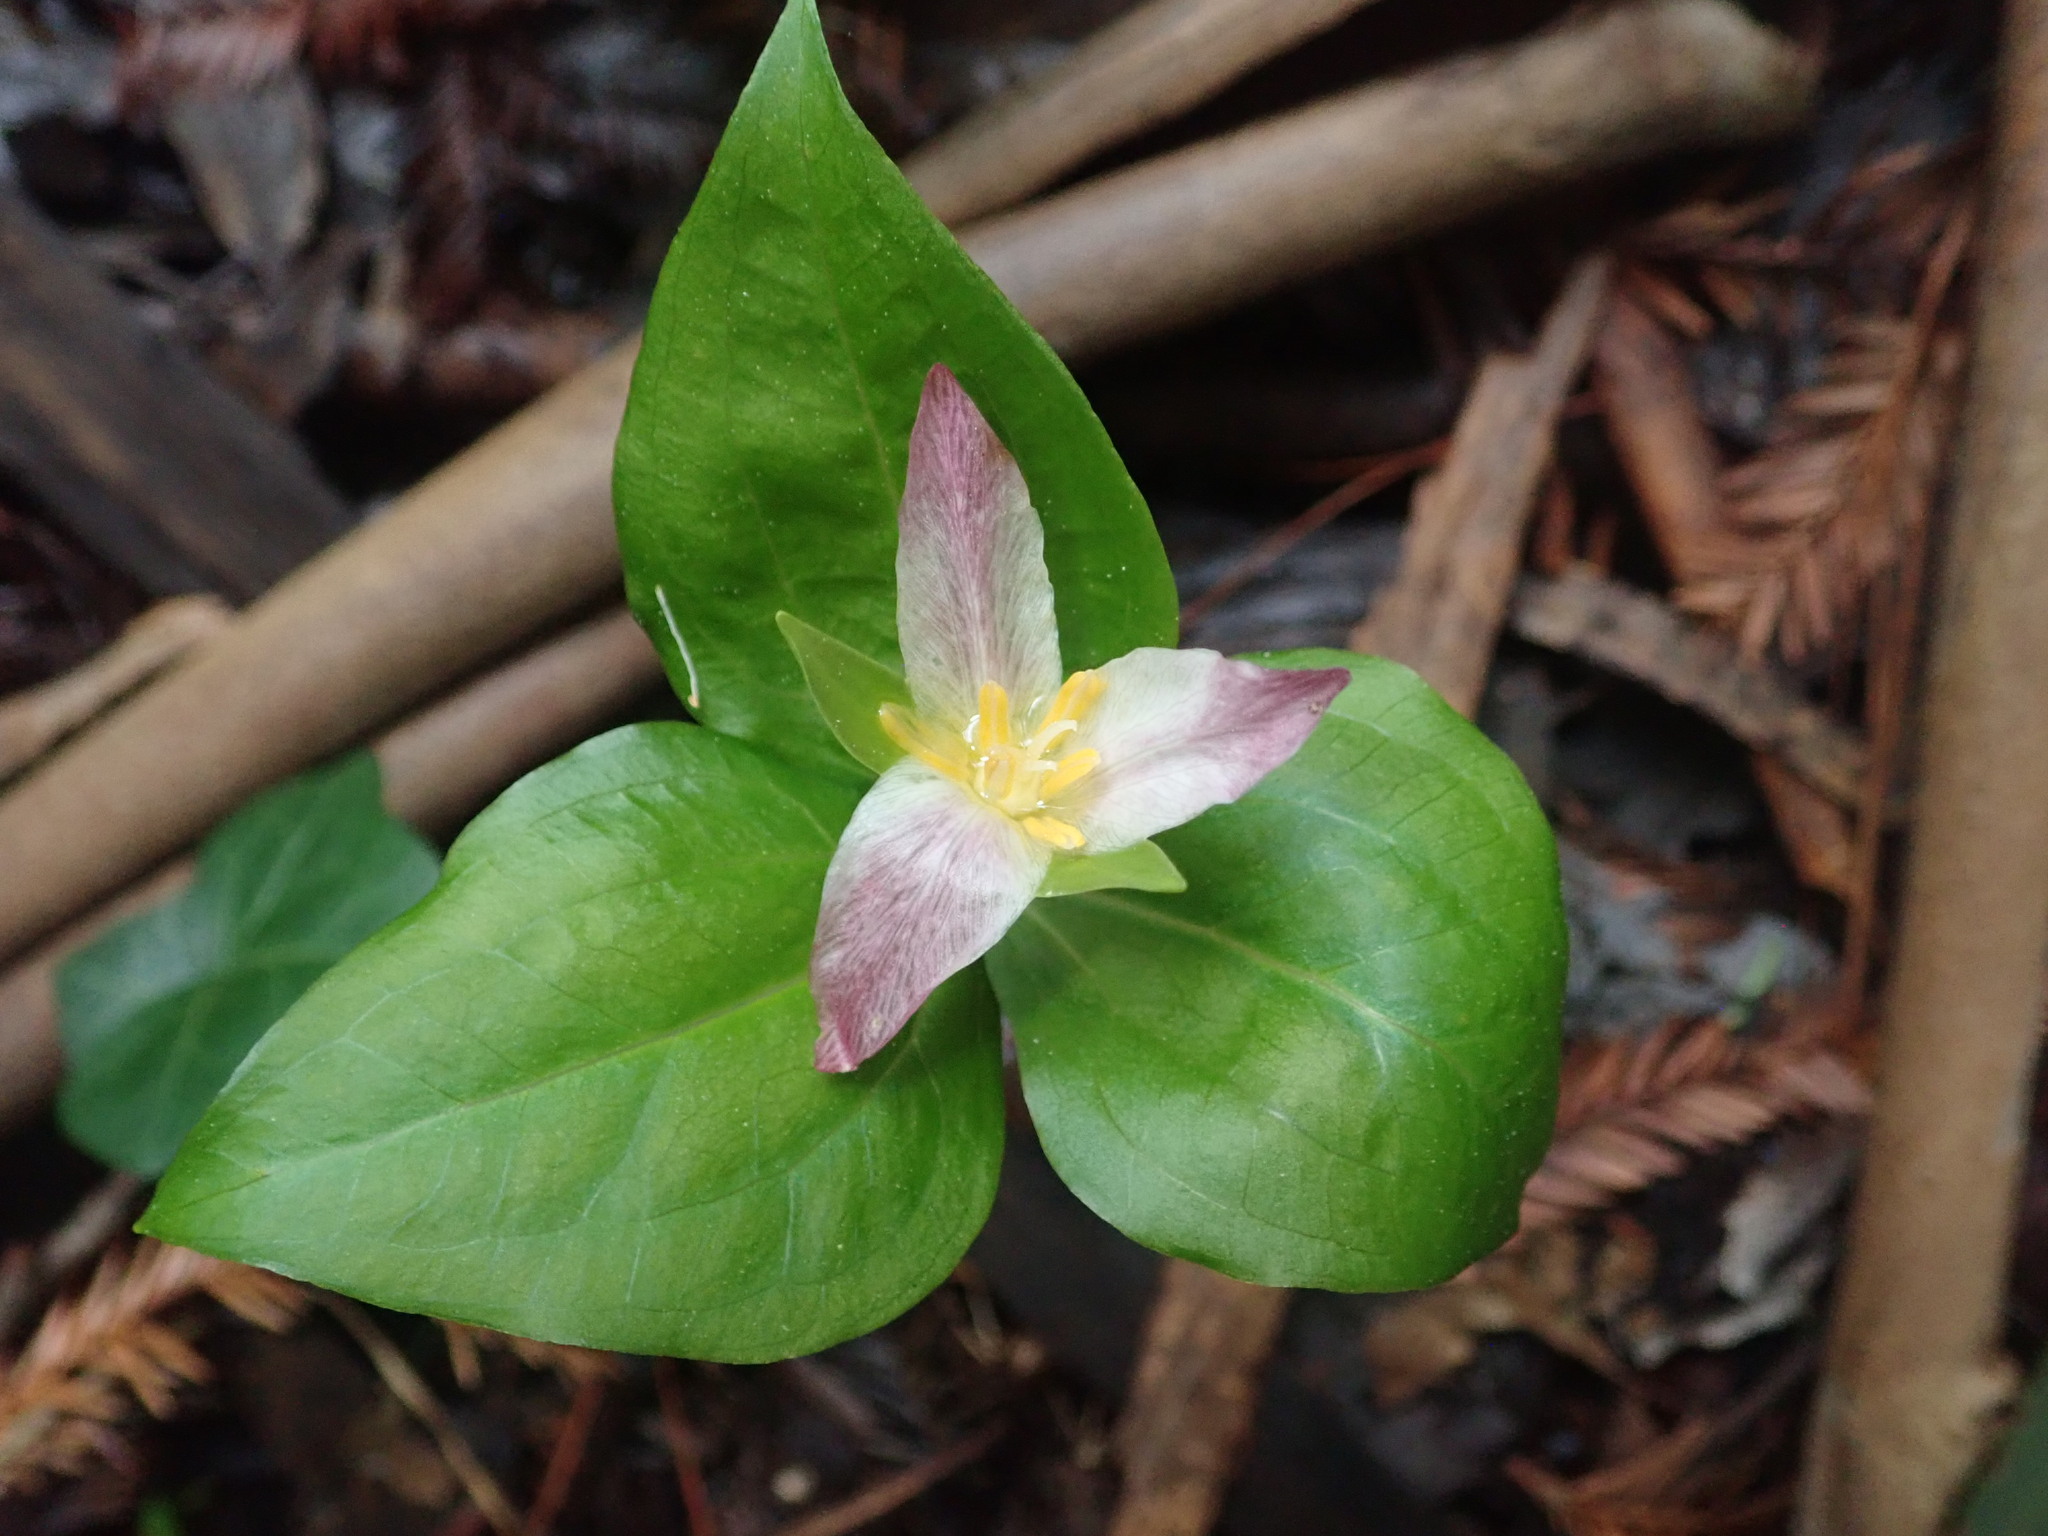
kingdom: Plantae
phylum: Tracheophyta
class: Liliopsida
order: Liliales
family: Melanthiaceae
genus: Trillium
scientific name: Trillium ovatum
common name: Pacific trillium
